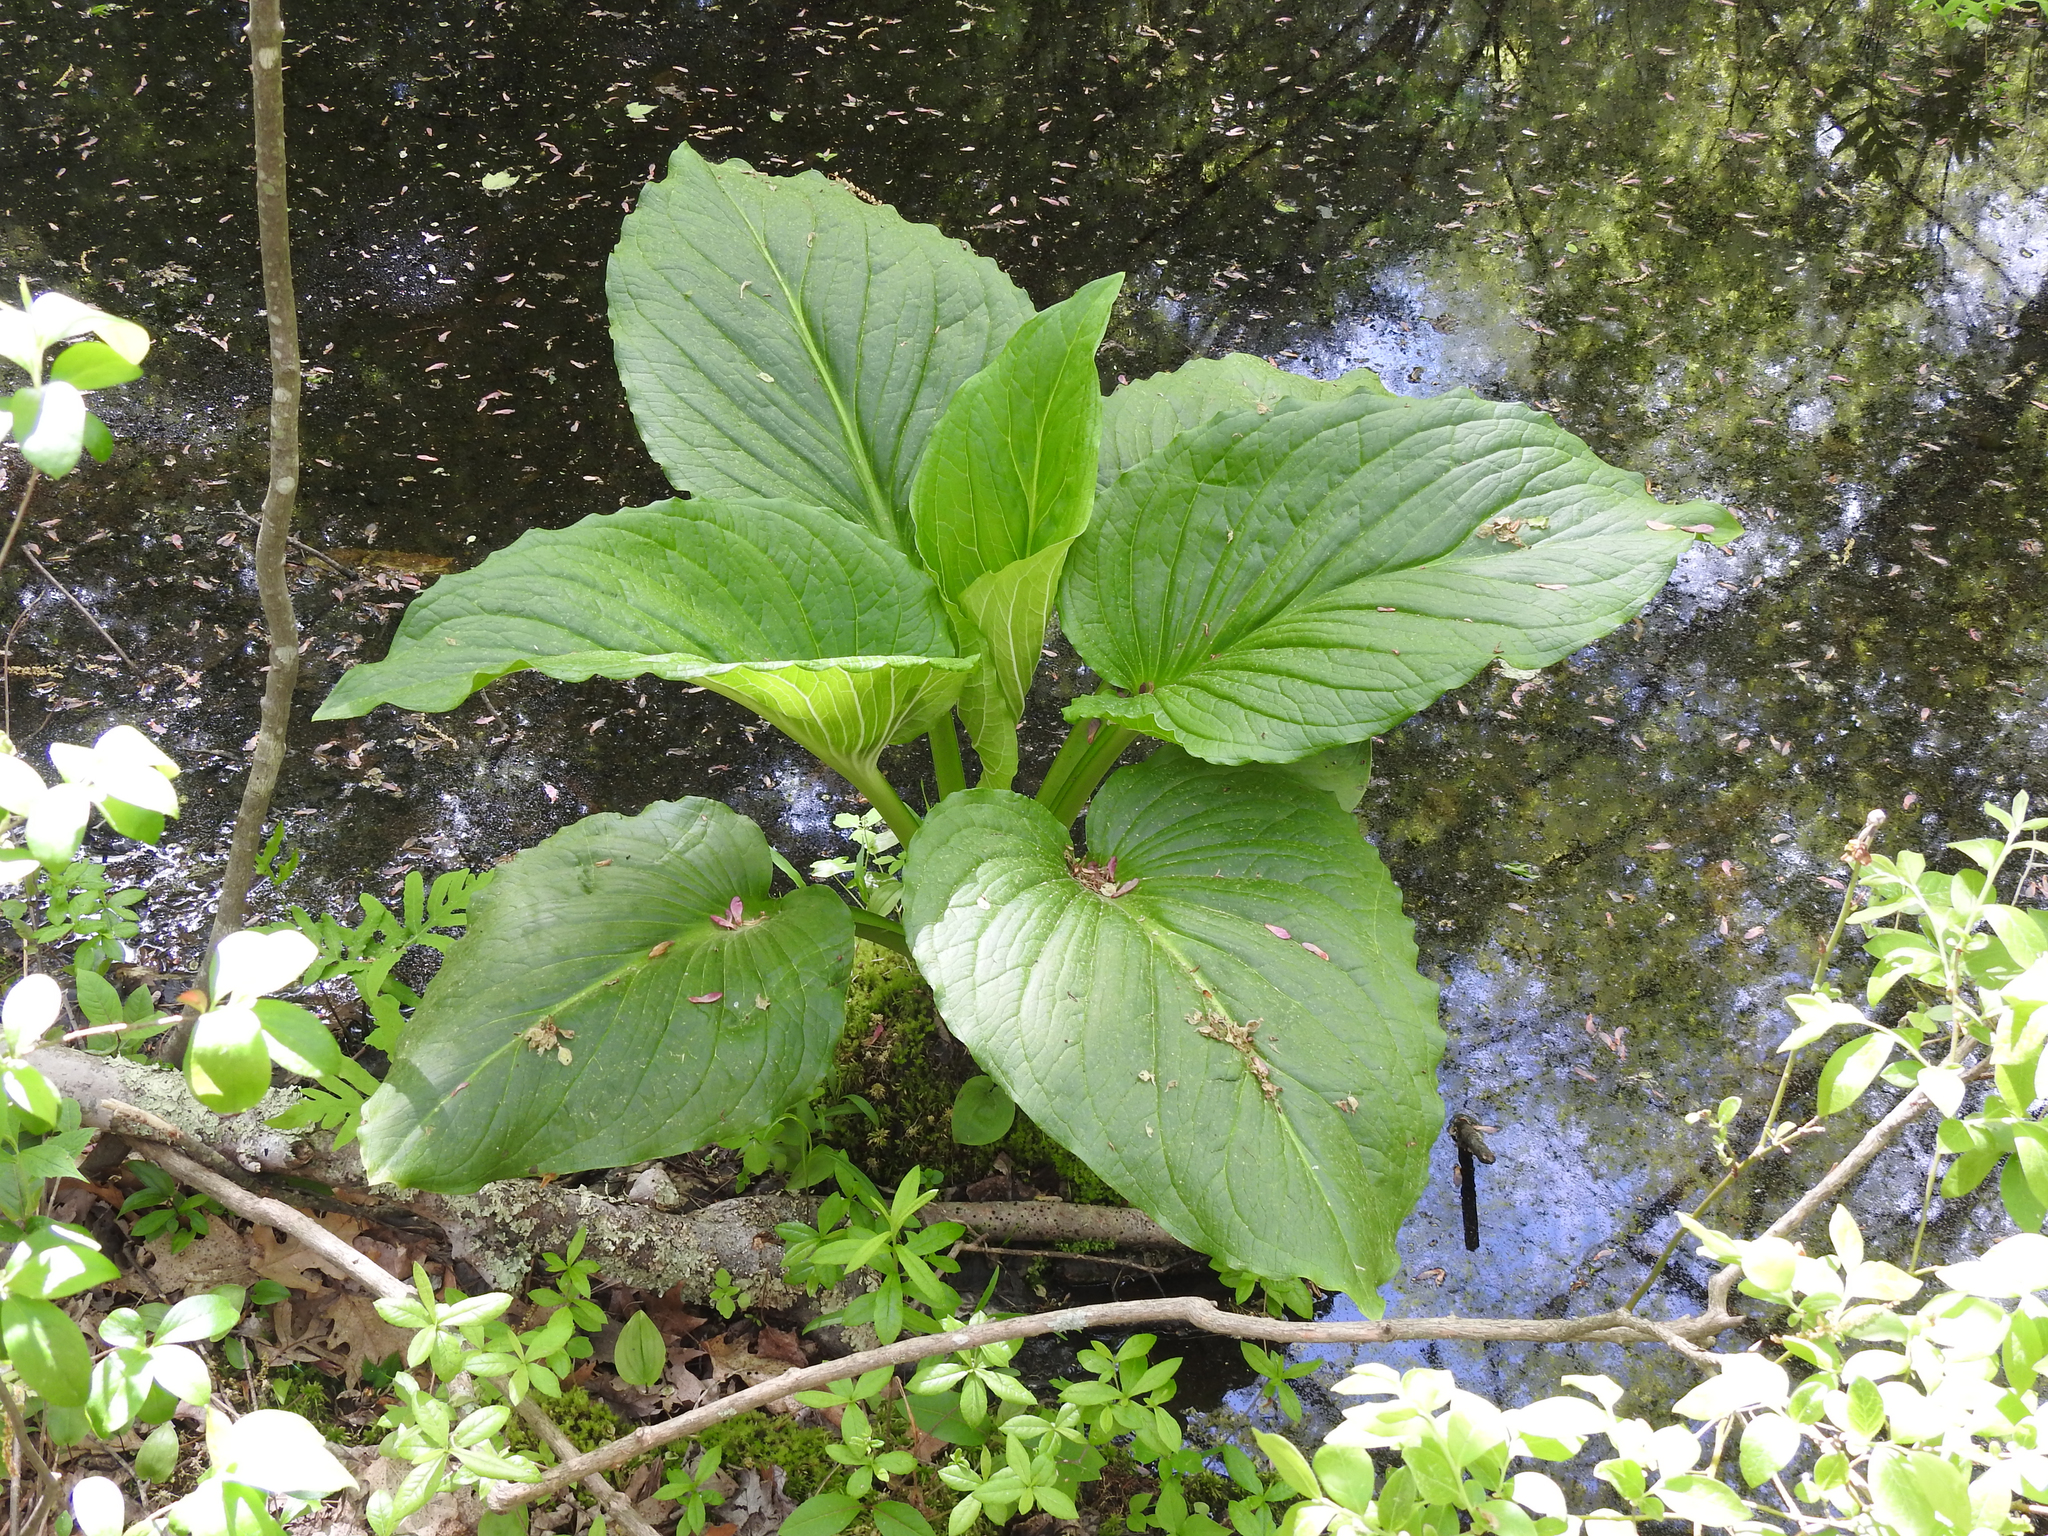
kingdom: Plantae
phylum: Tracheophyta
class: Liliopsida
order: Alismatales
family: Araceae
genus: Symplocarpus
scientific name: Symplocarpus foetidus
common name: Eastern skunk cabbage
